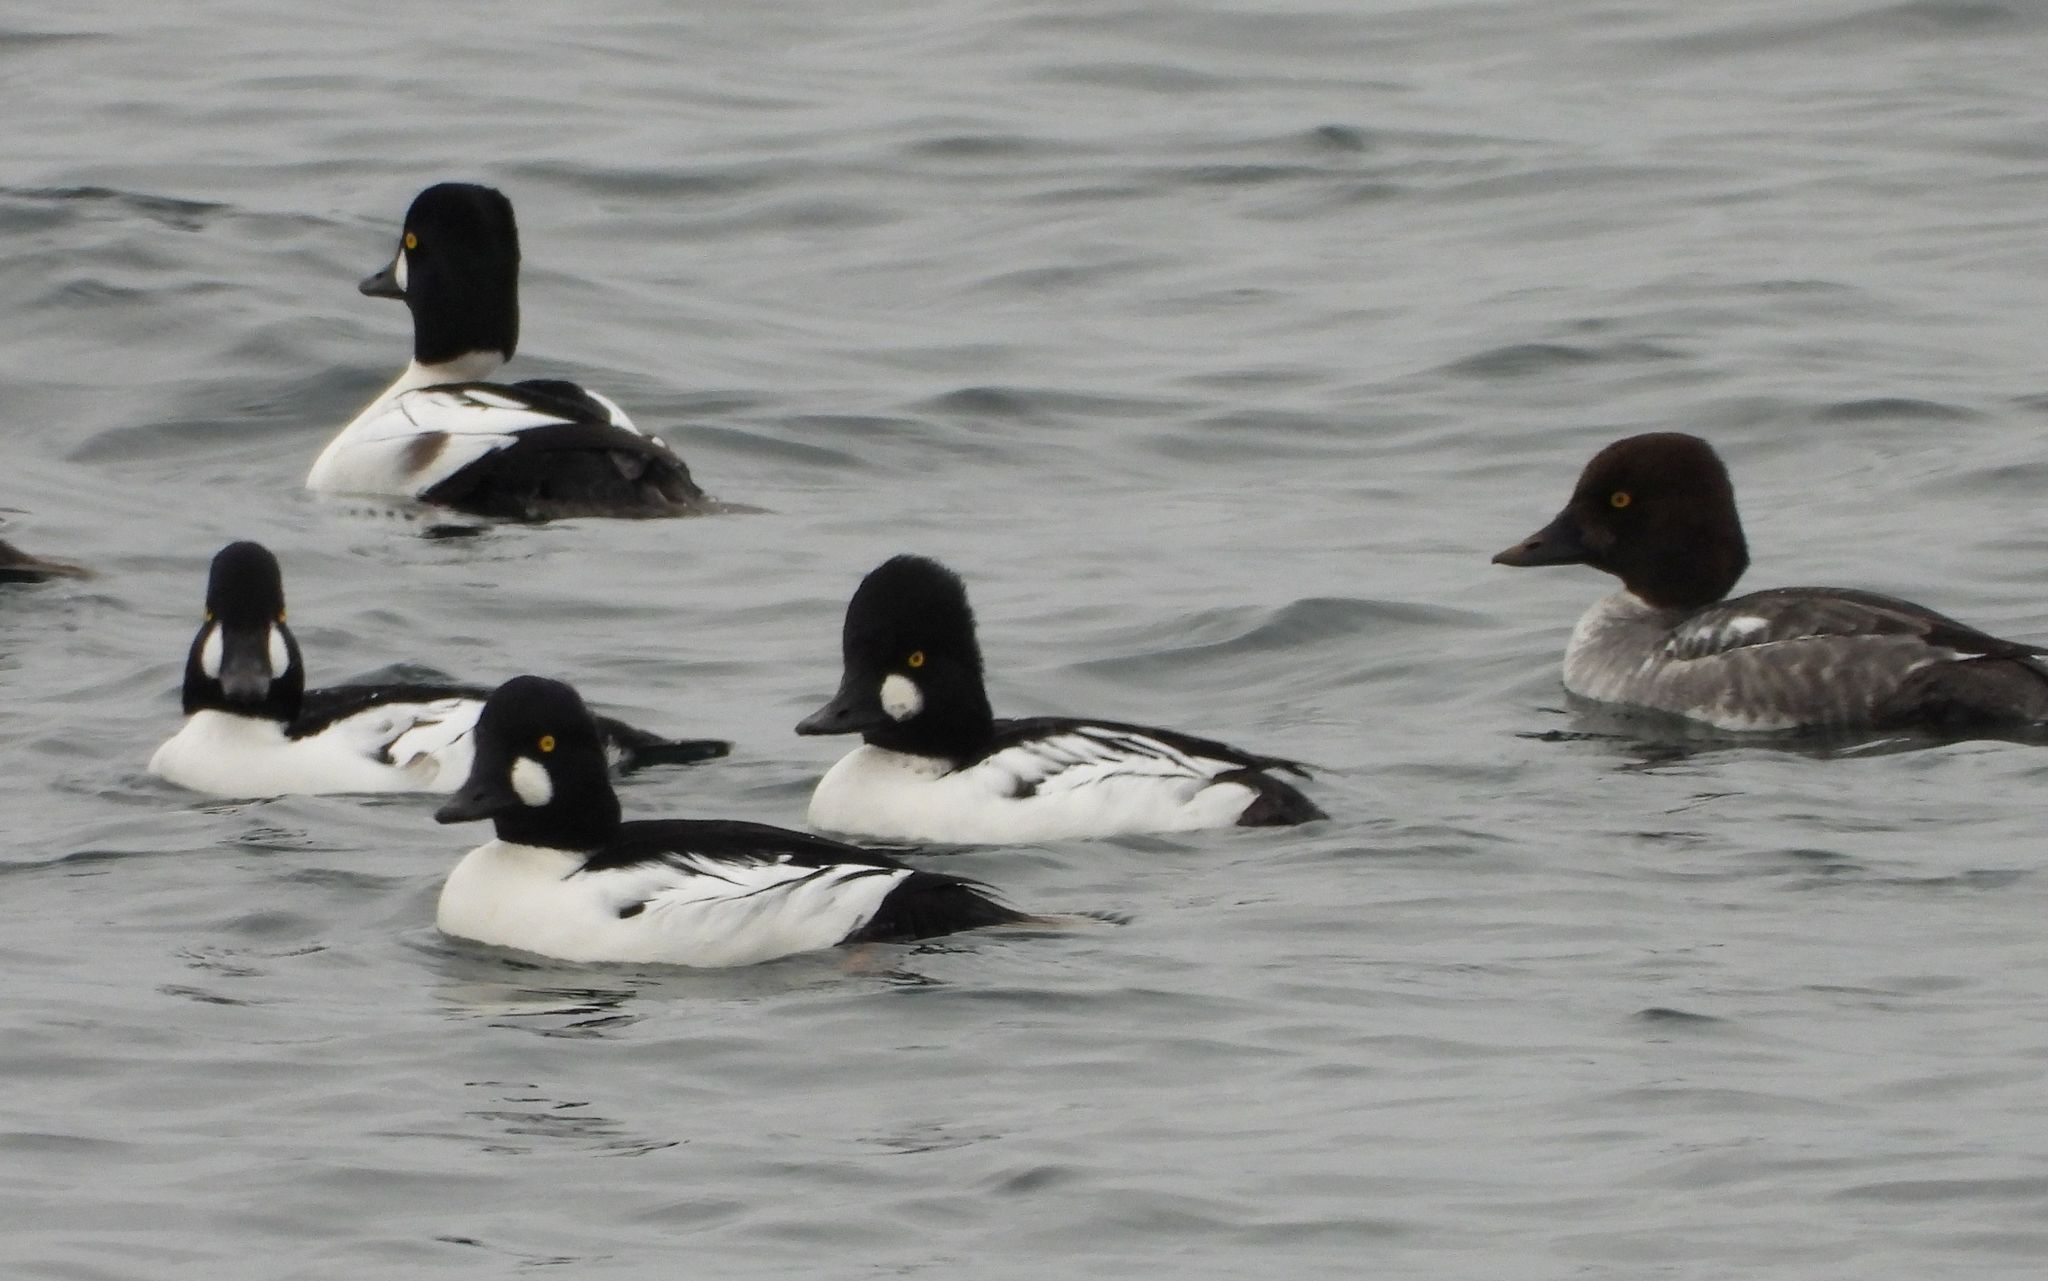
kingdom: Animalia
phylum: Chordata
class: Aves
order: Anseriformes
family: Anatidae
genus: Bucephala
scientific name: Bucephala clangula
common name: Common goldeneye
